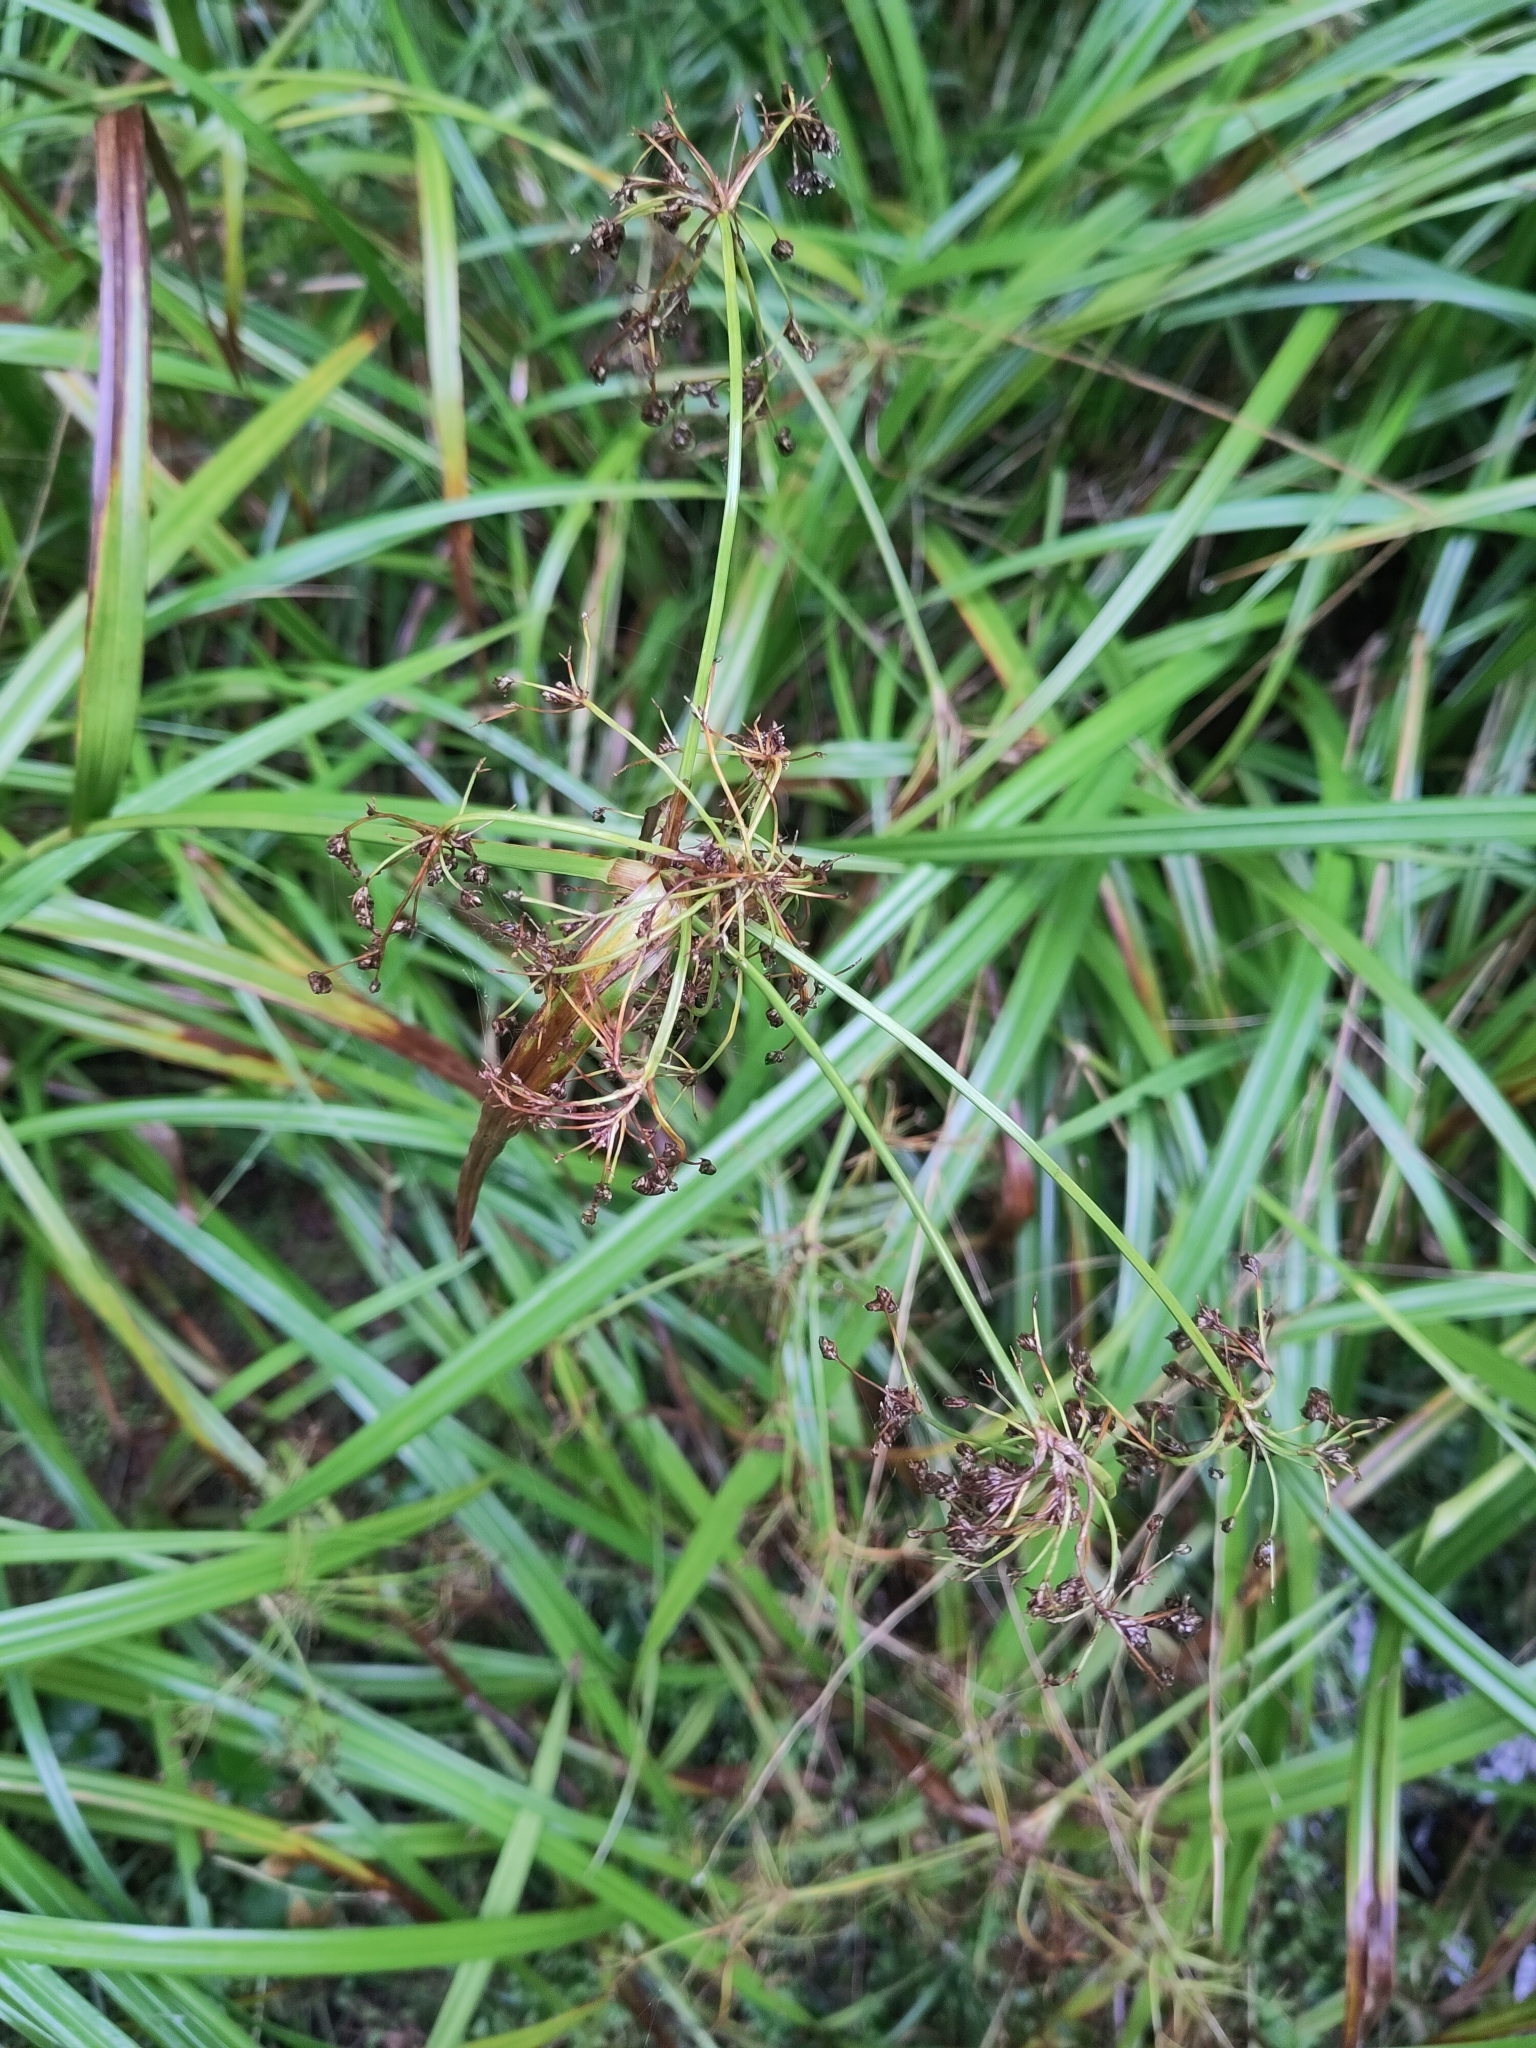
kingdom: Plantae
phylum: Tracheophyta
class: Liliopsida
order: Poales
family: Cyperaceae
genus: Scirpus
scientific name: Scirpus sylvaticus
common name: Wood club-rush
